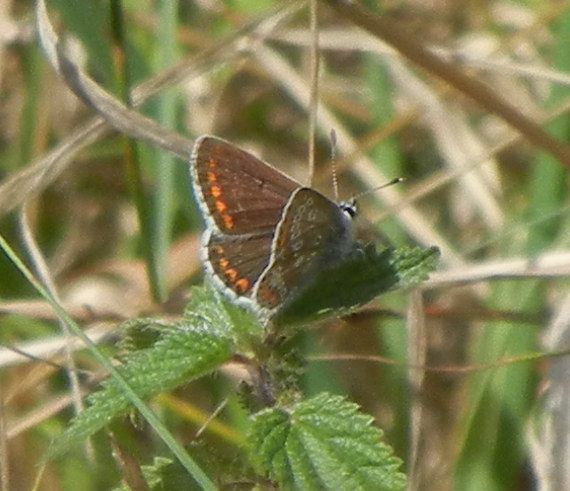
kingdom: Animalia
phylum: Arthropoda
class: Insecta
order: Lepidoptera
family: Lycaenidae
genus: Aricia
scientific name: Aricia agestis
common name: Brown argus
